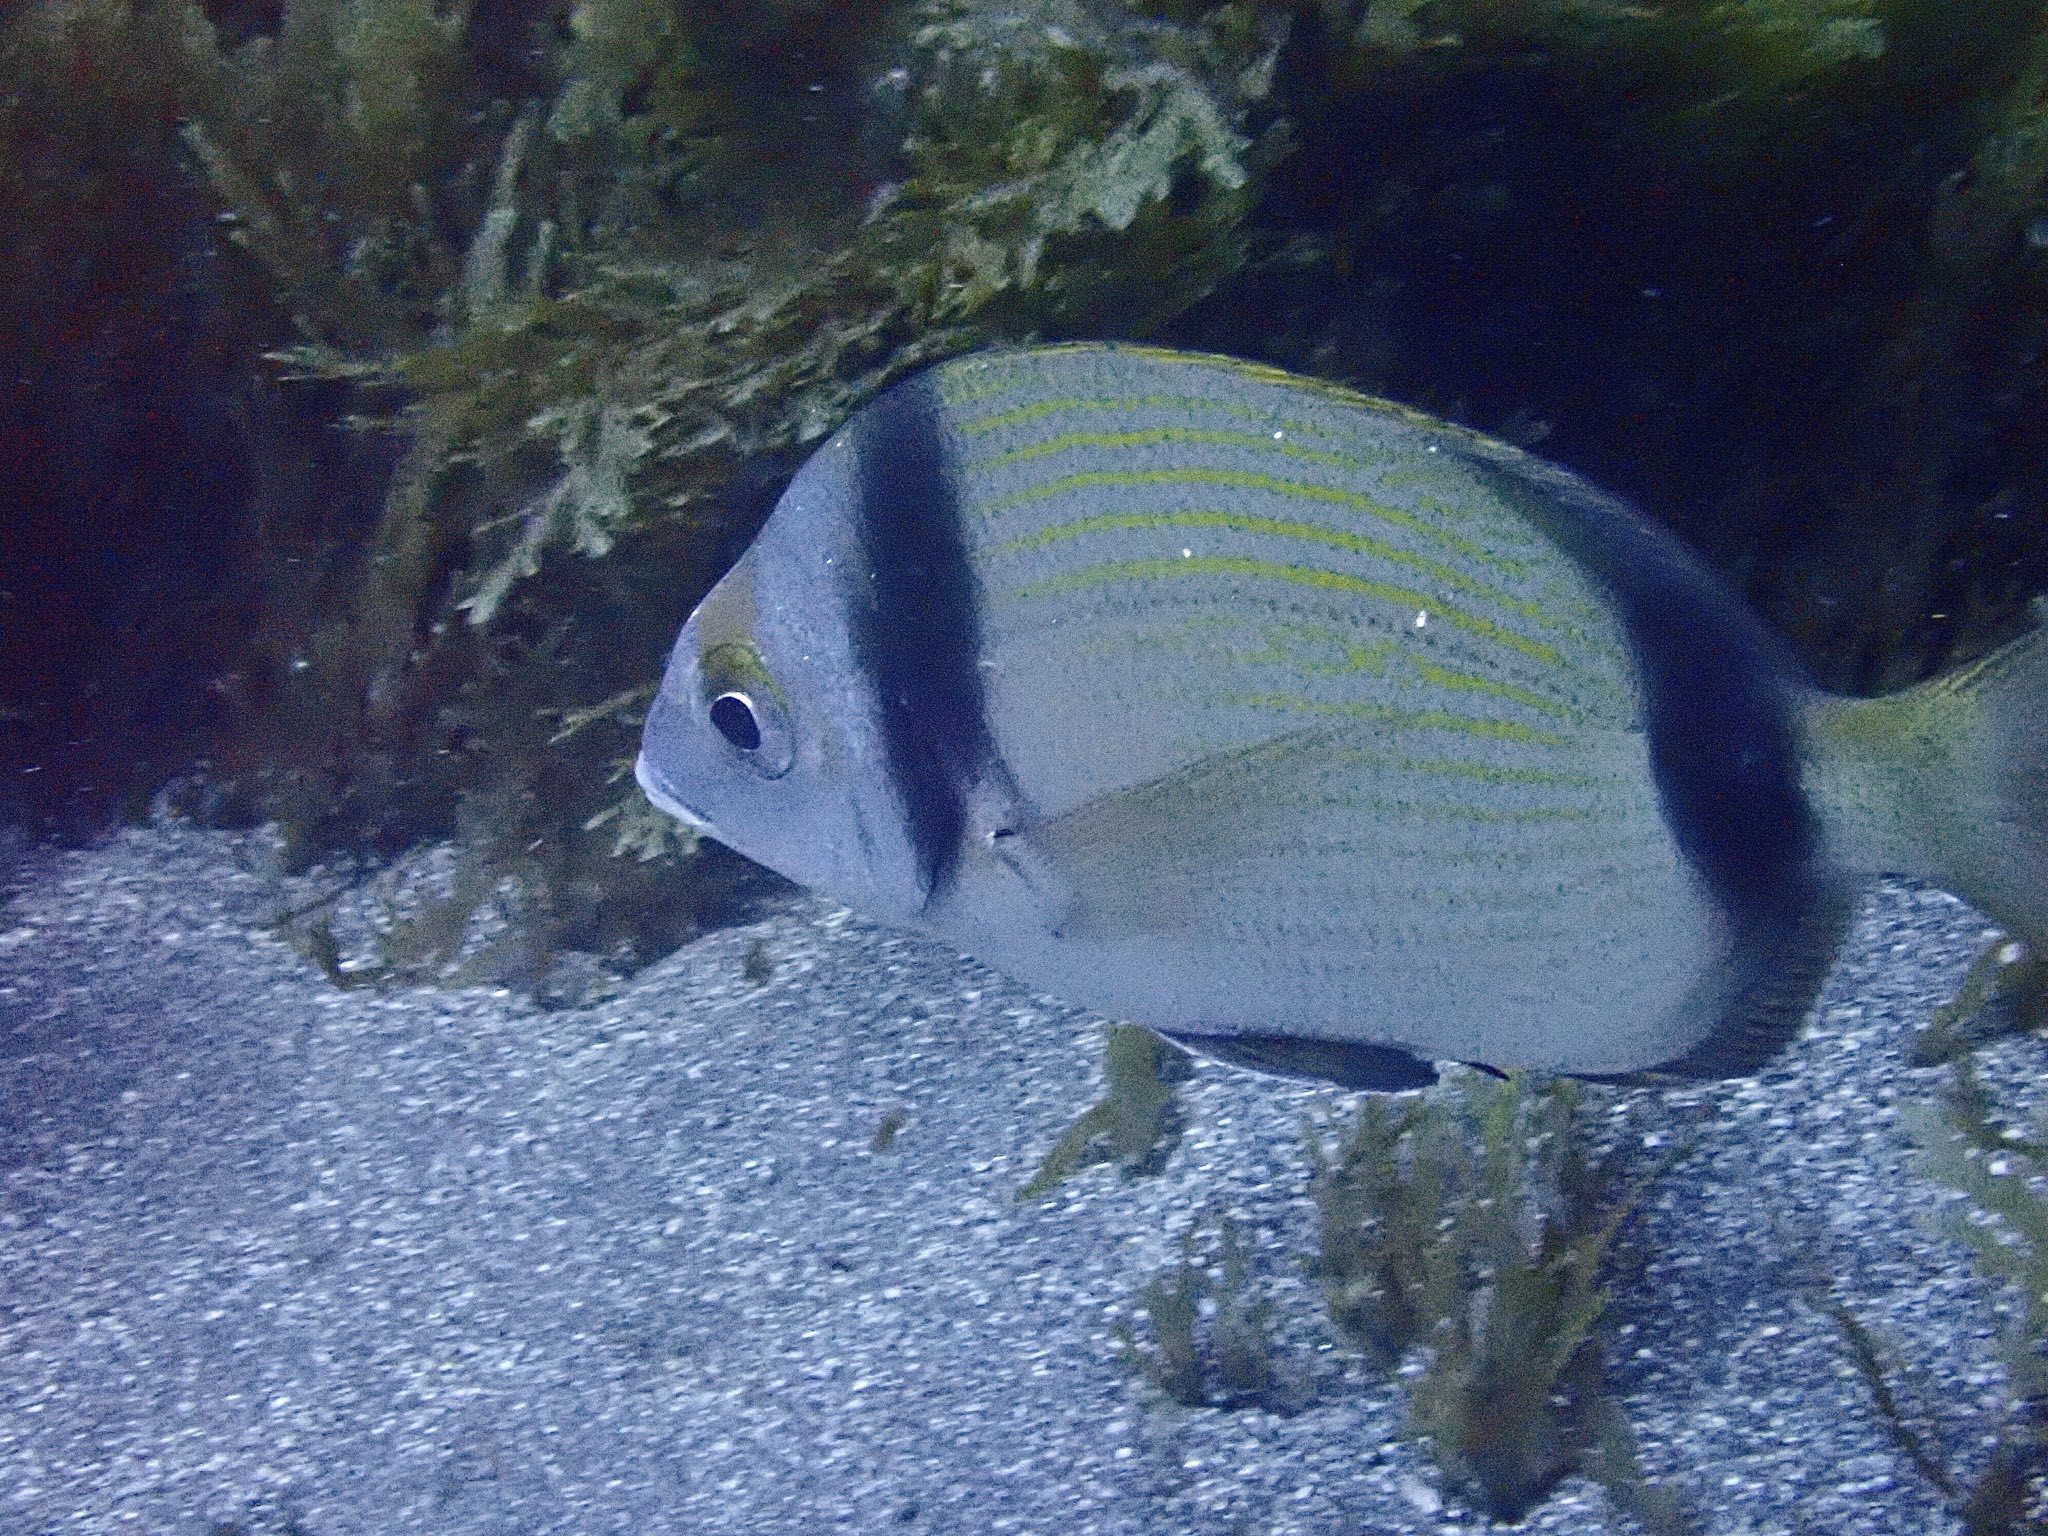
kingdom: Animalia
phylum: Chordata
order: Perciformes
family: Sparidae
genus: Diplodus
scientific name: Diplodus vulgaris
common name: Common two-banded seabream
